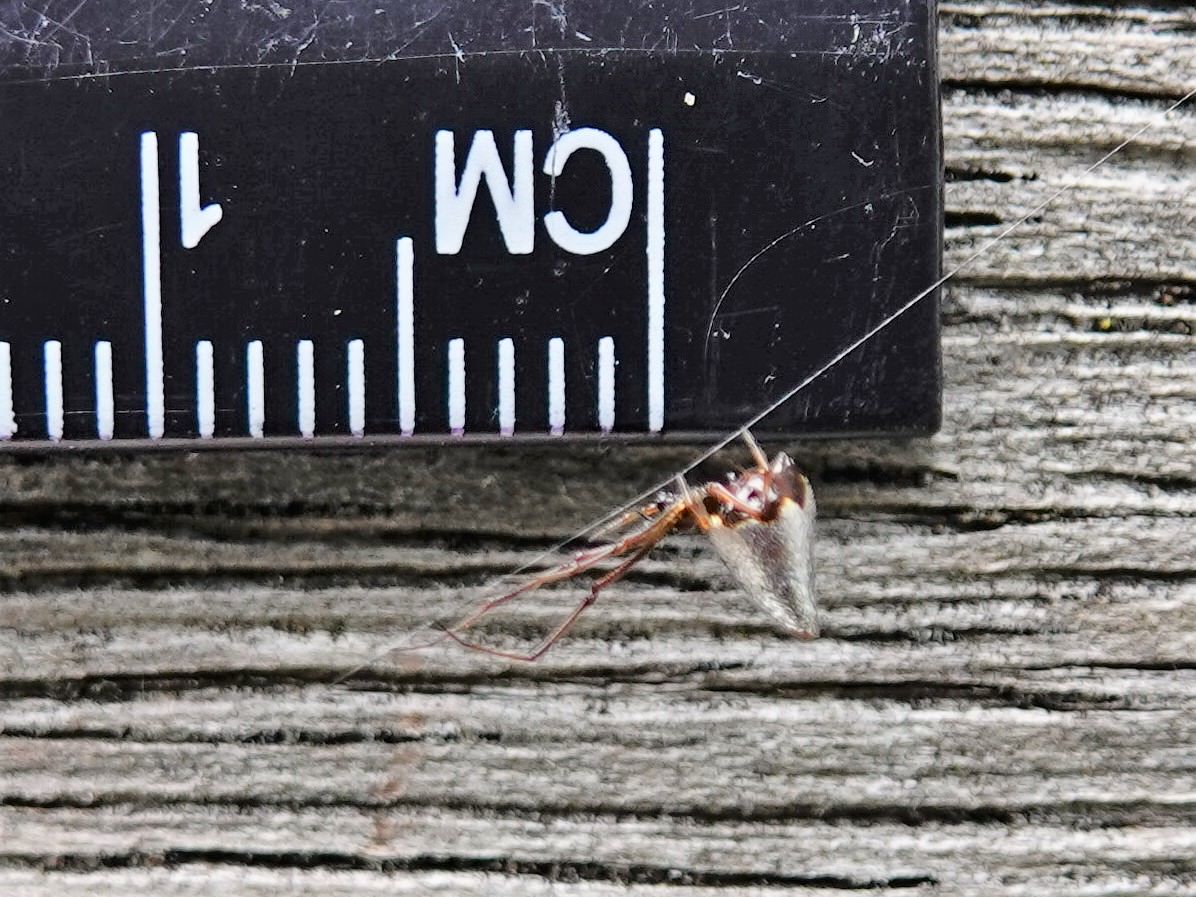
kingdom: Animalia
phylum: Arthropoda
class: Arachnida
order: Araneae
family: Theridiidae
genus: Argyrodes
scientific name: Argyrodes antipodianus
